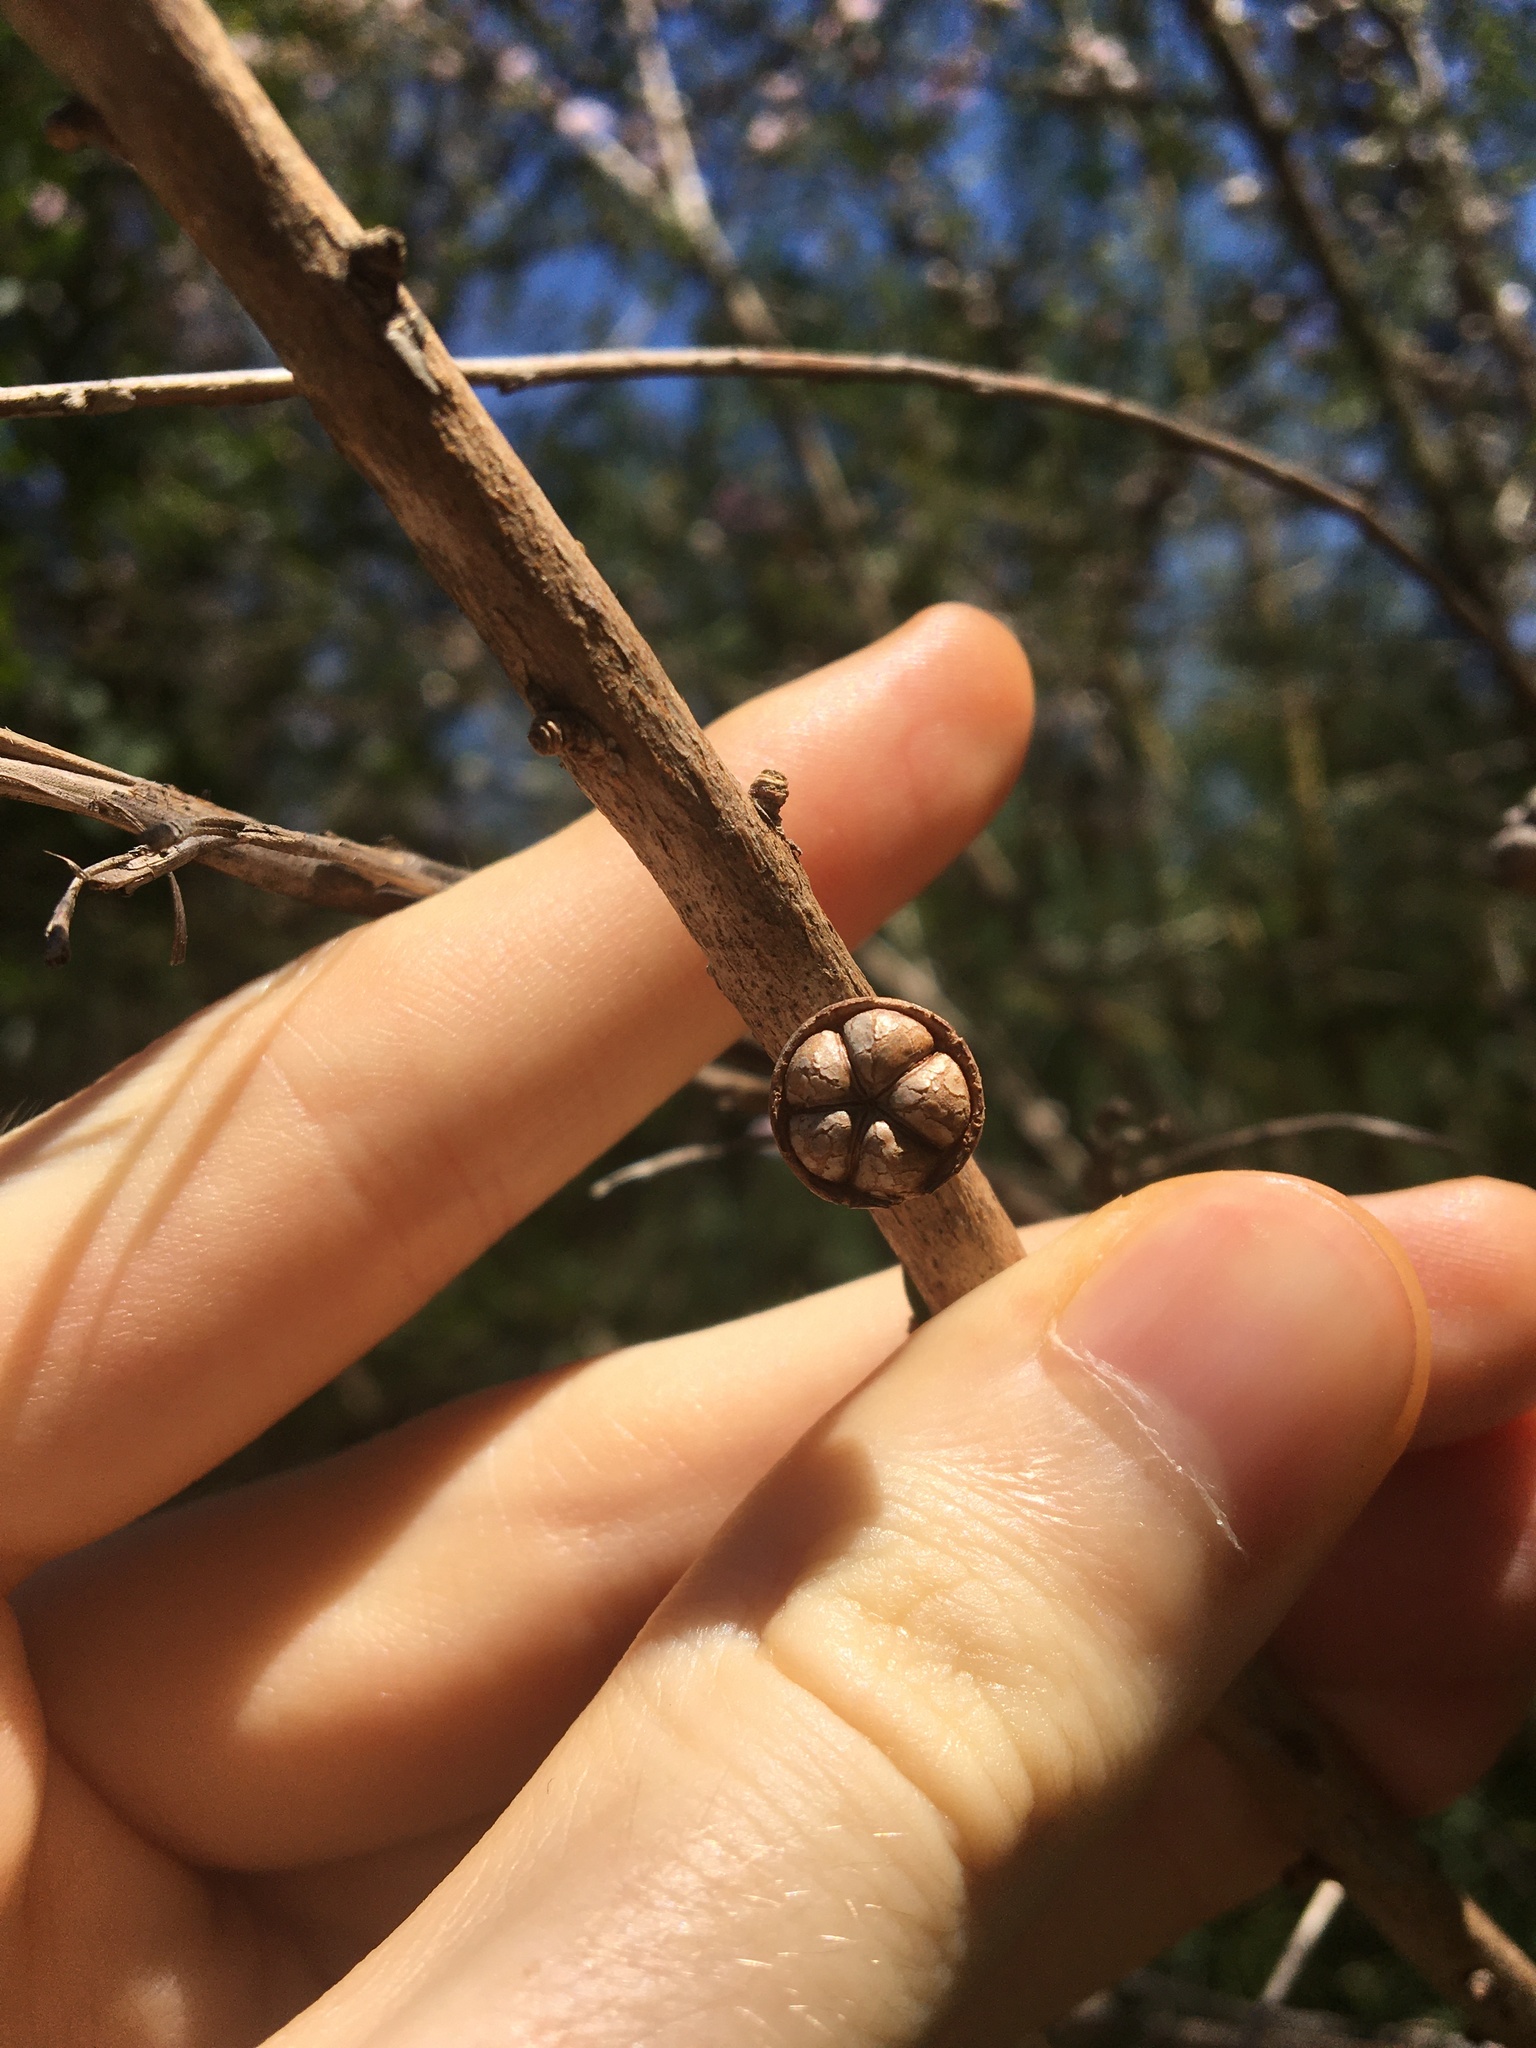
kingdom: Plantae
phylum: Tracheophyta
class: Magnoliopsida
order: Myrtales
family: Myrtaceae
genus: Leptospermum
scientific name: Leptospermum squarrosum
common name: Peach-blossom teatree
